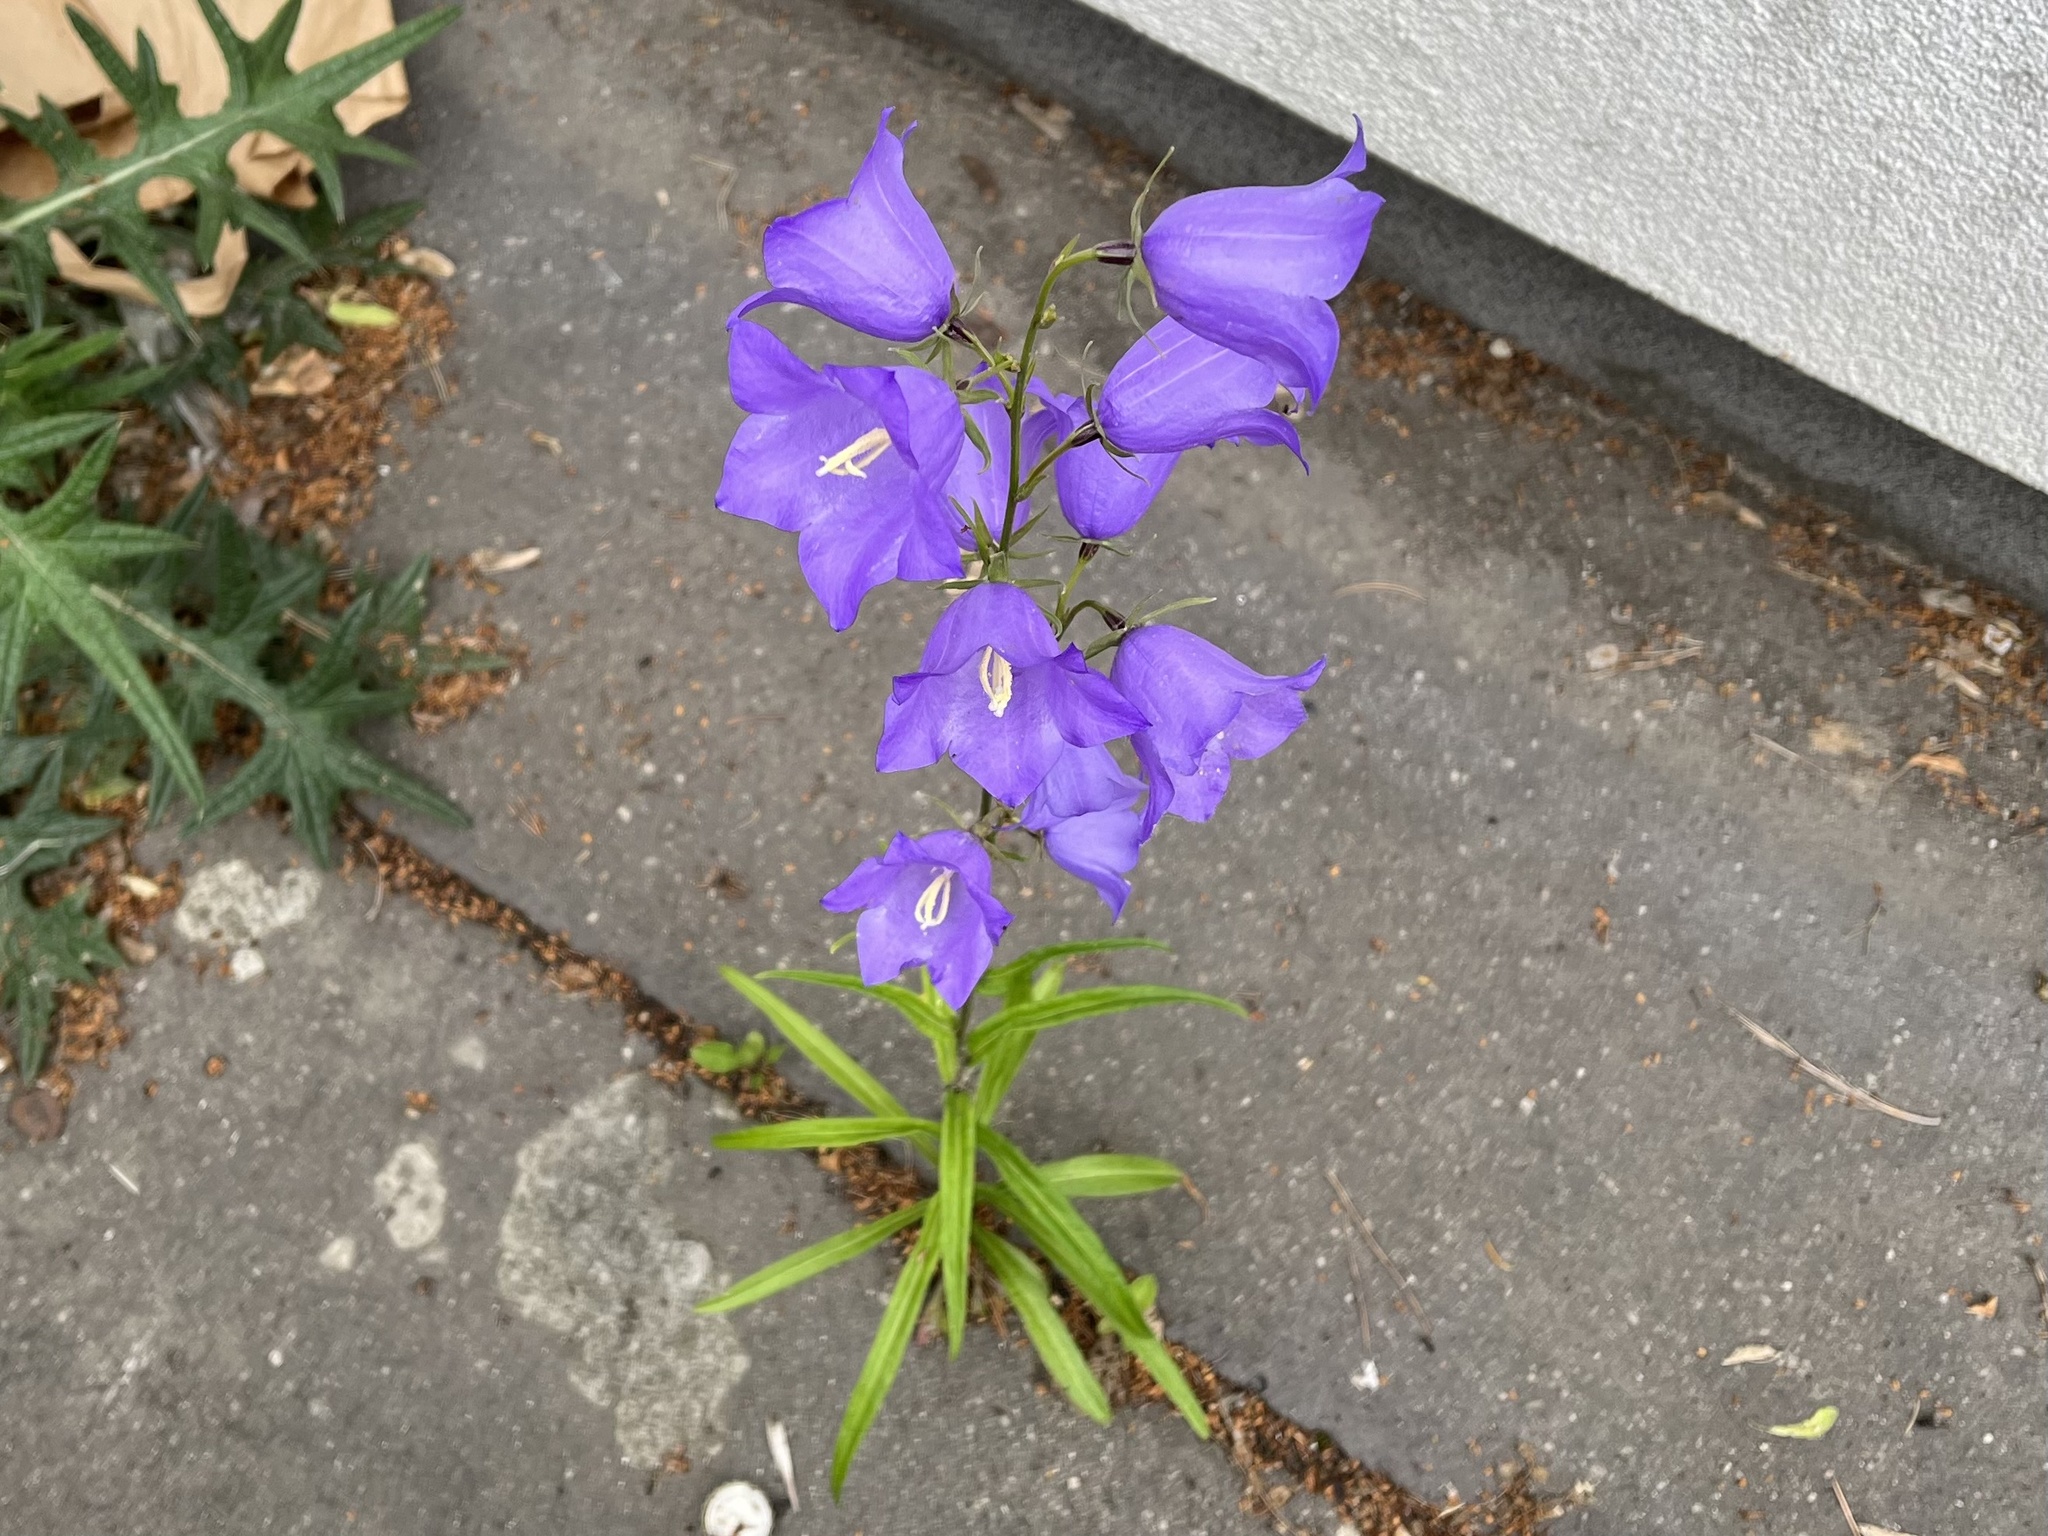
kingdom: Plantae
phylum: Tracheophyta
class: Magnoliopsida
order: Asterales
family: Campanulaceae
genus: Campanula
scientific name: Campanula persicifolia
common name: Peach-leaved bellflower
